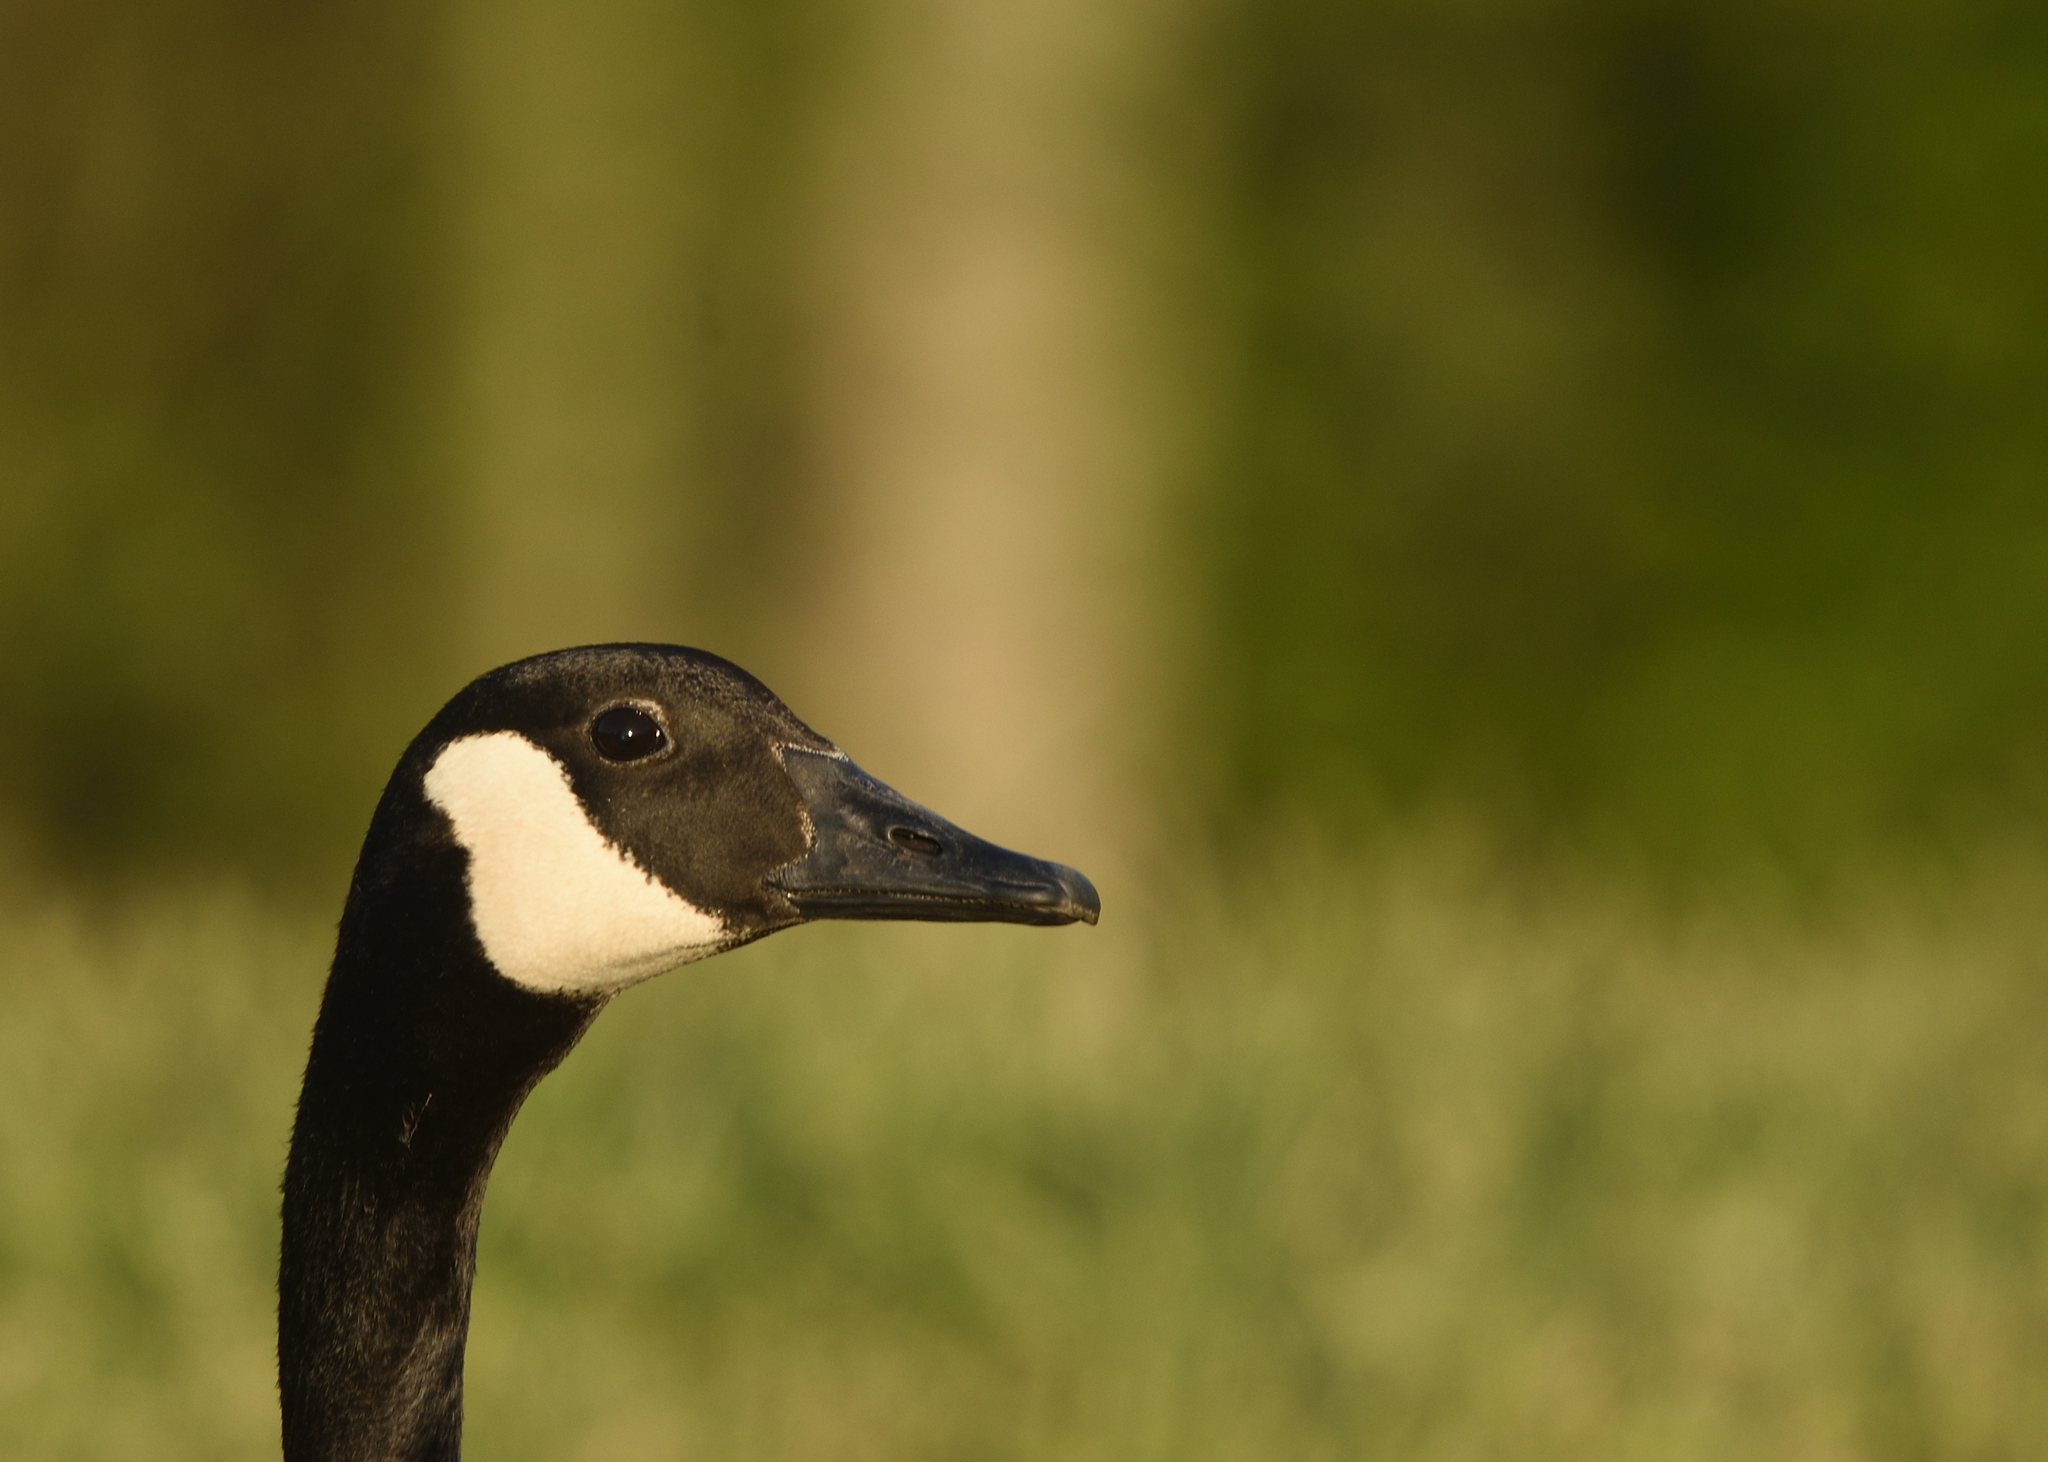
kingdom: Animalia
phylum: Chordata
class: Aves
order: Anseriformes
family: Anatidae
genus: Branta
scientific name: Branta canadensis
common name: Canada goose
